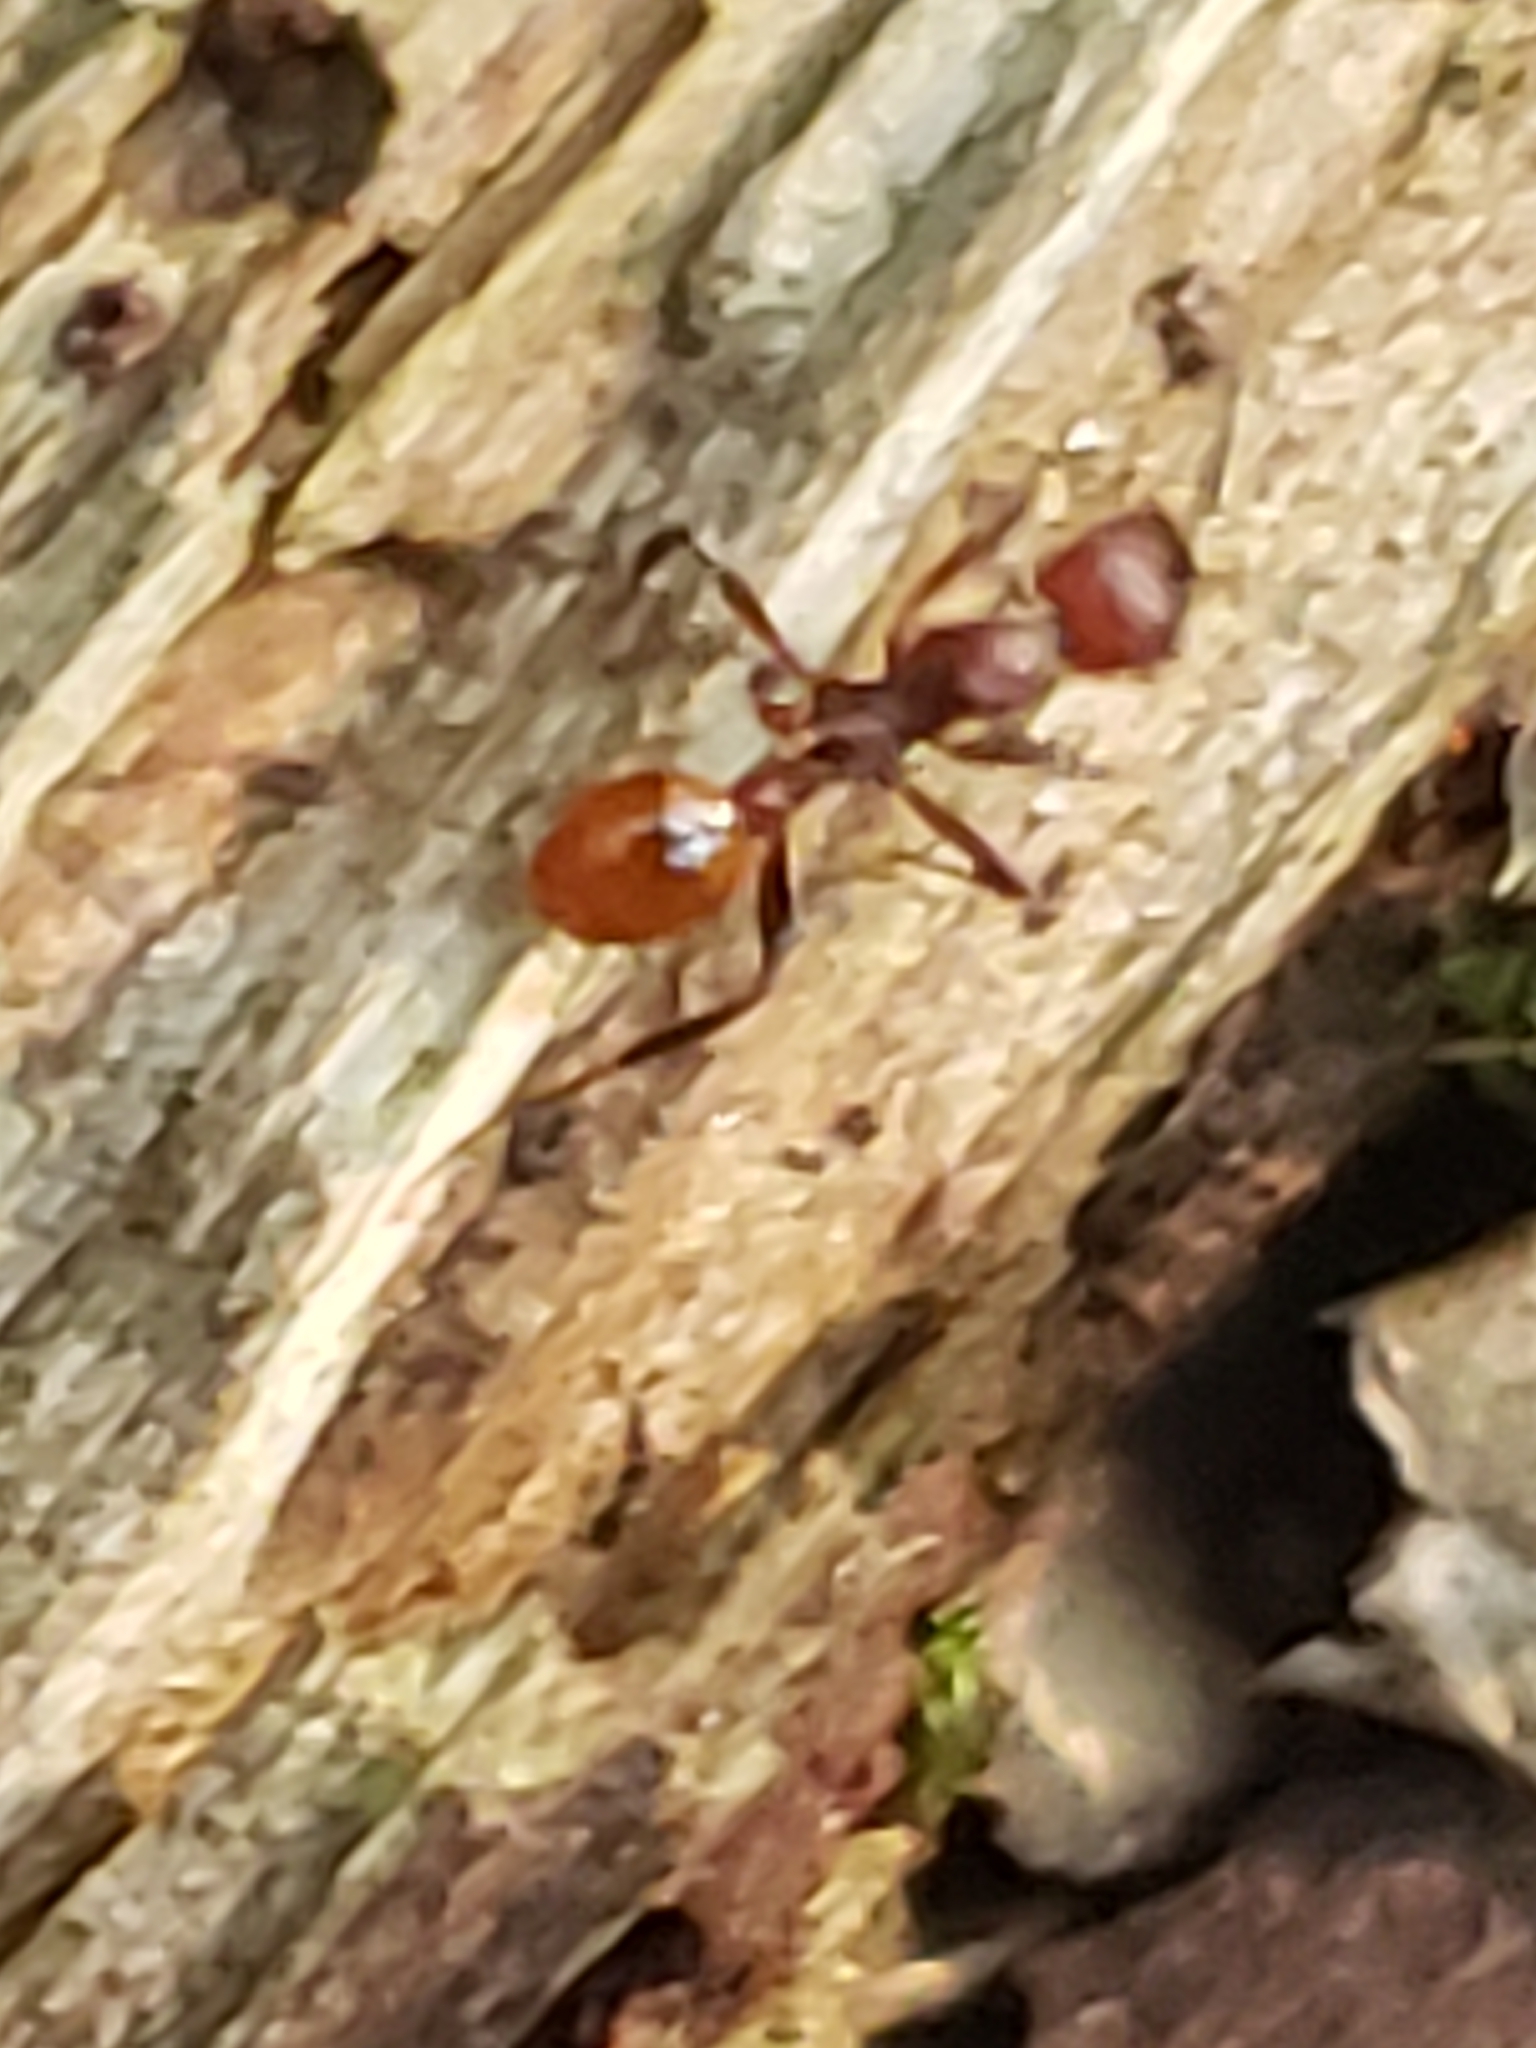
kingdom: Animalia
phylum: Arthropoda
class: Insecta
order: Hymenoptera
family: Formicidae
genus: Aphaenogaster
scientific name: Aphaenogaster tennesseensis
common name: Tennessee thread-waisted ant
